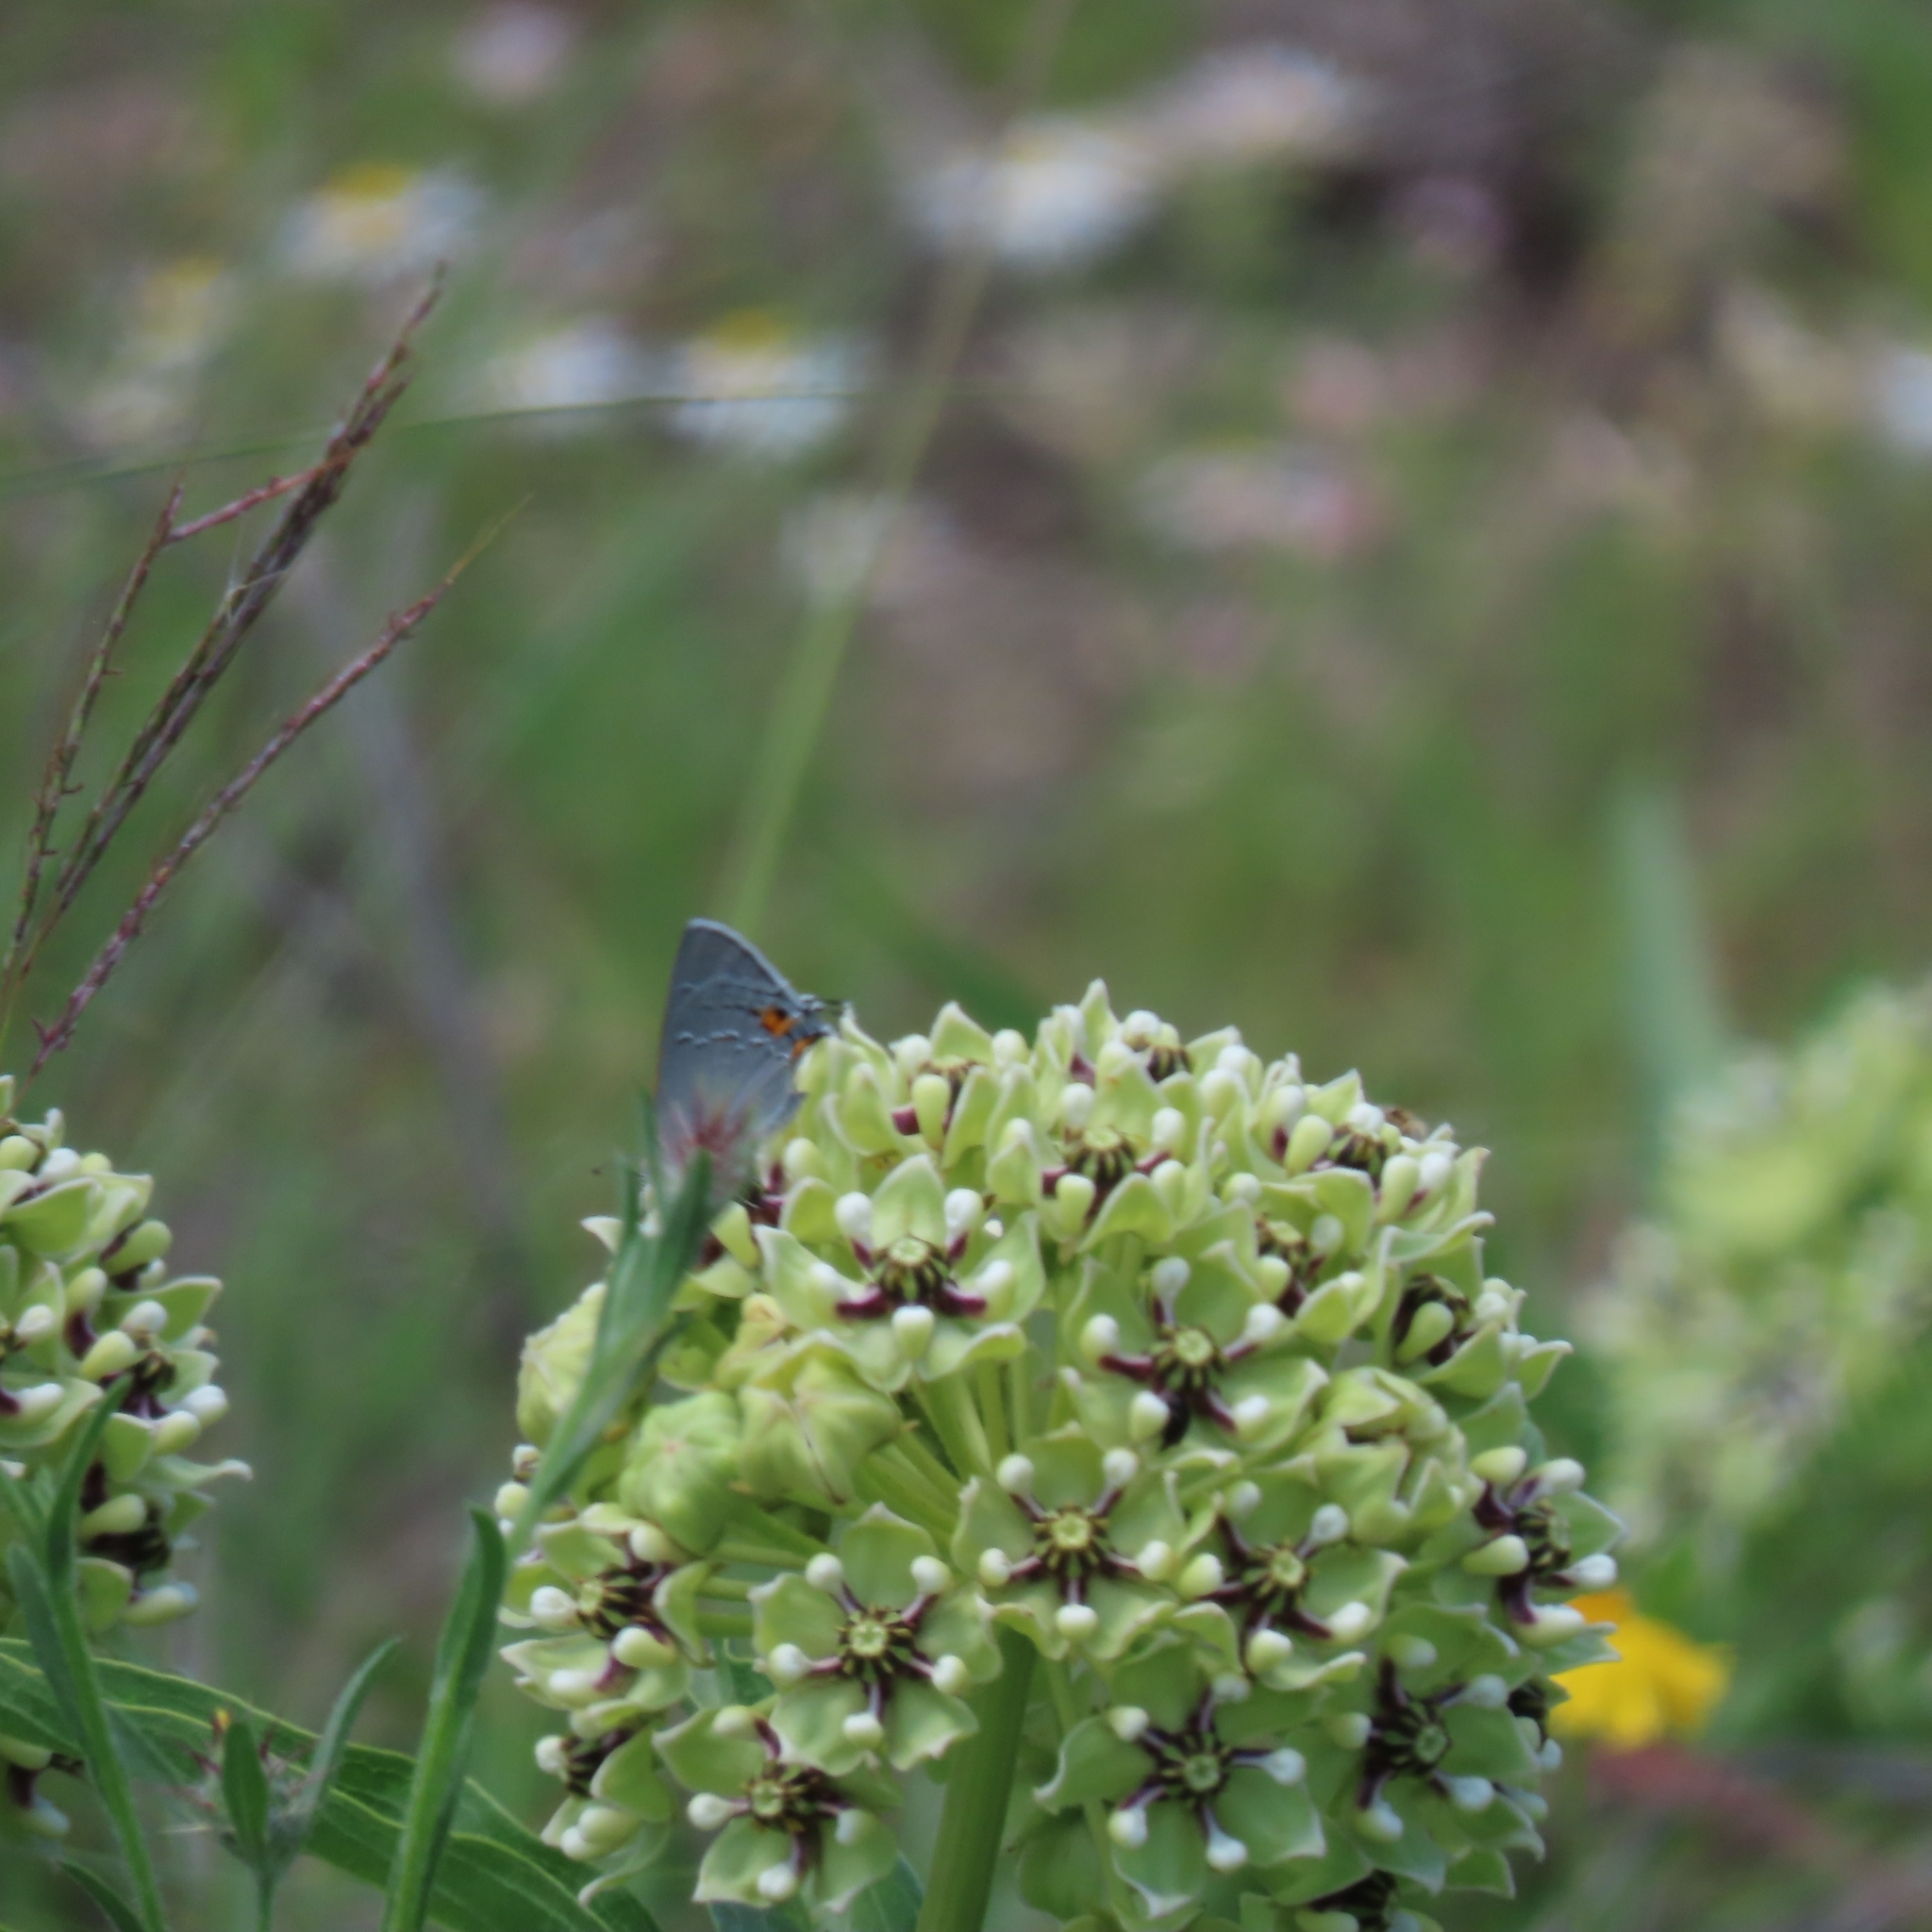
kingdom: Plantae
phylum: Tracheophyta
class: Magnoliopsida
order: Gentianales
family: Apocynaceae
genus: Asclepias
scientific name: Asclepias asperula
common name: Antelope horns
